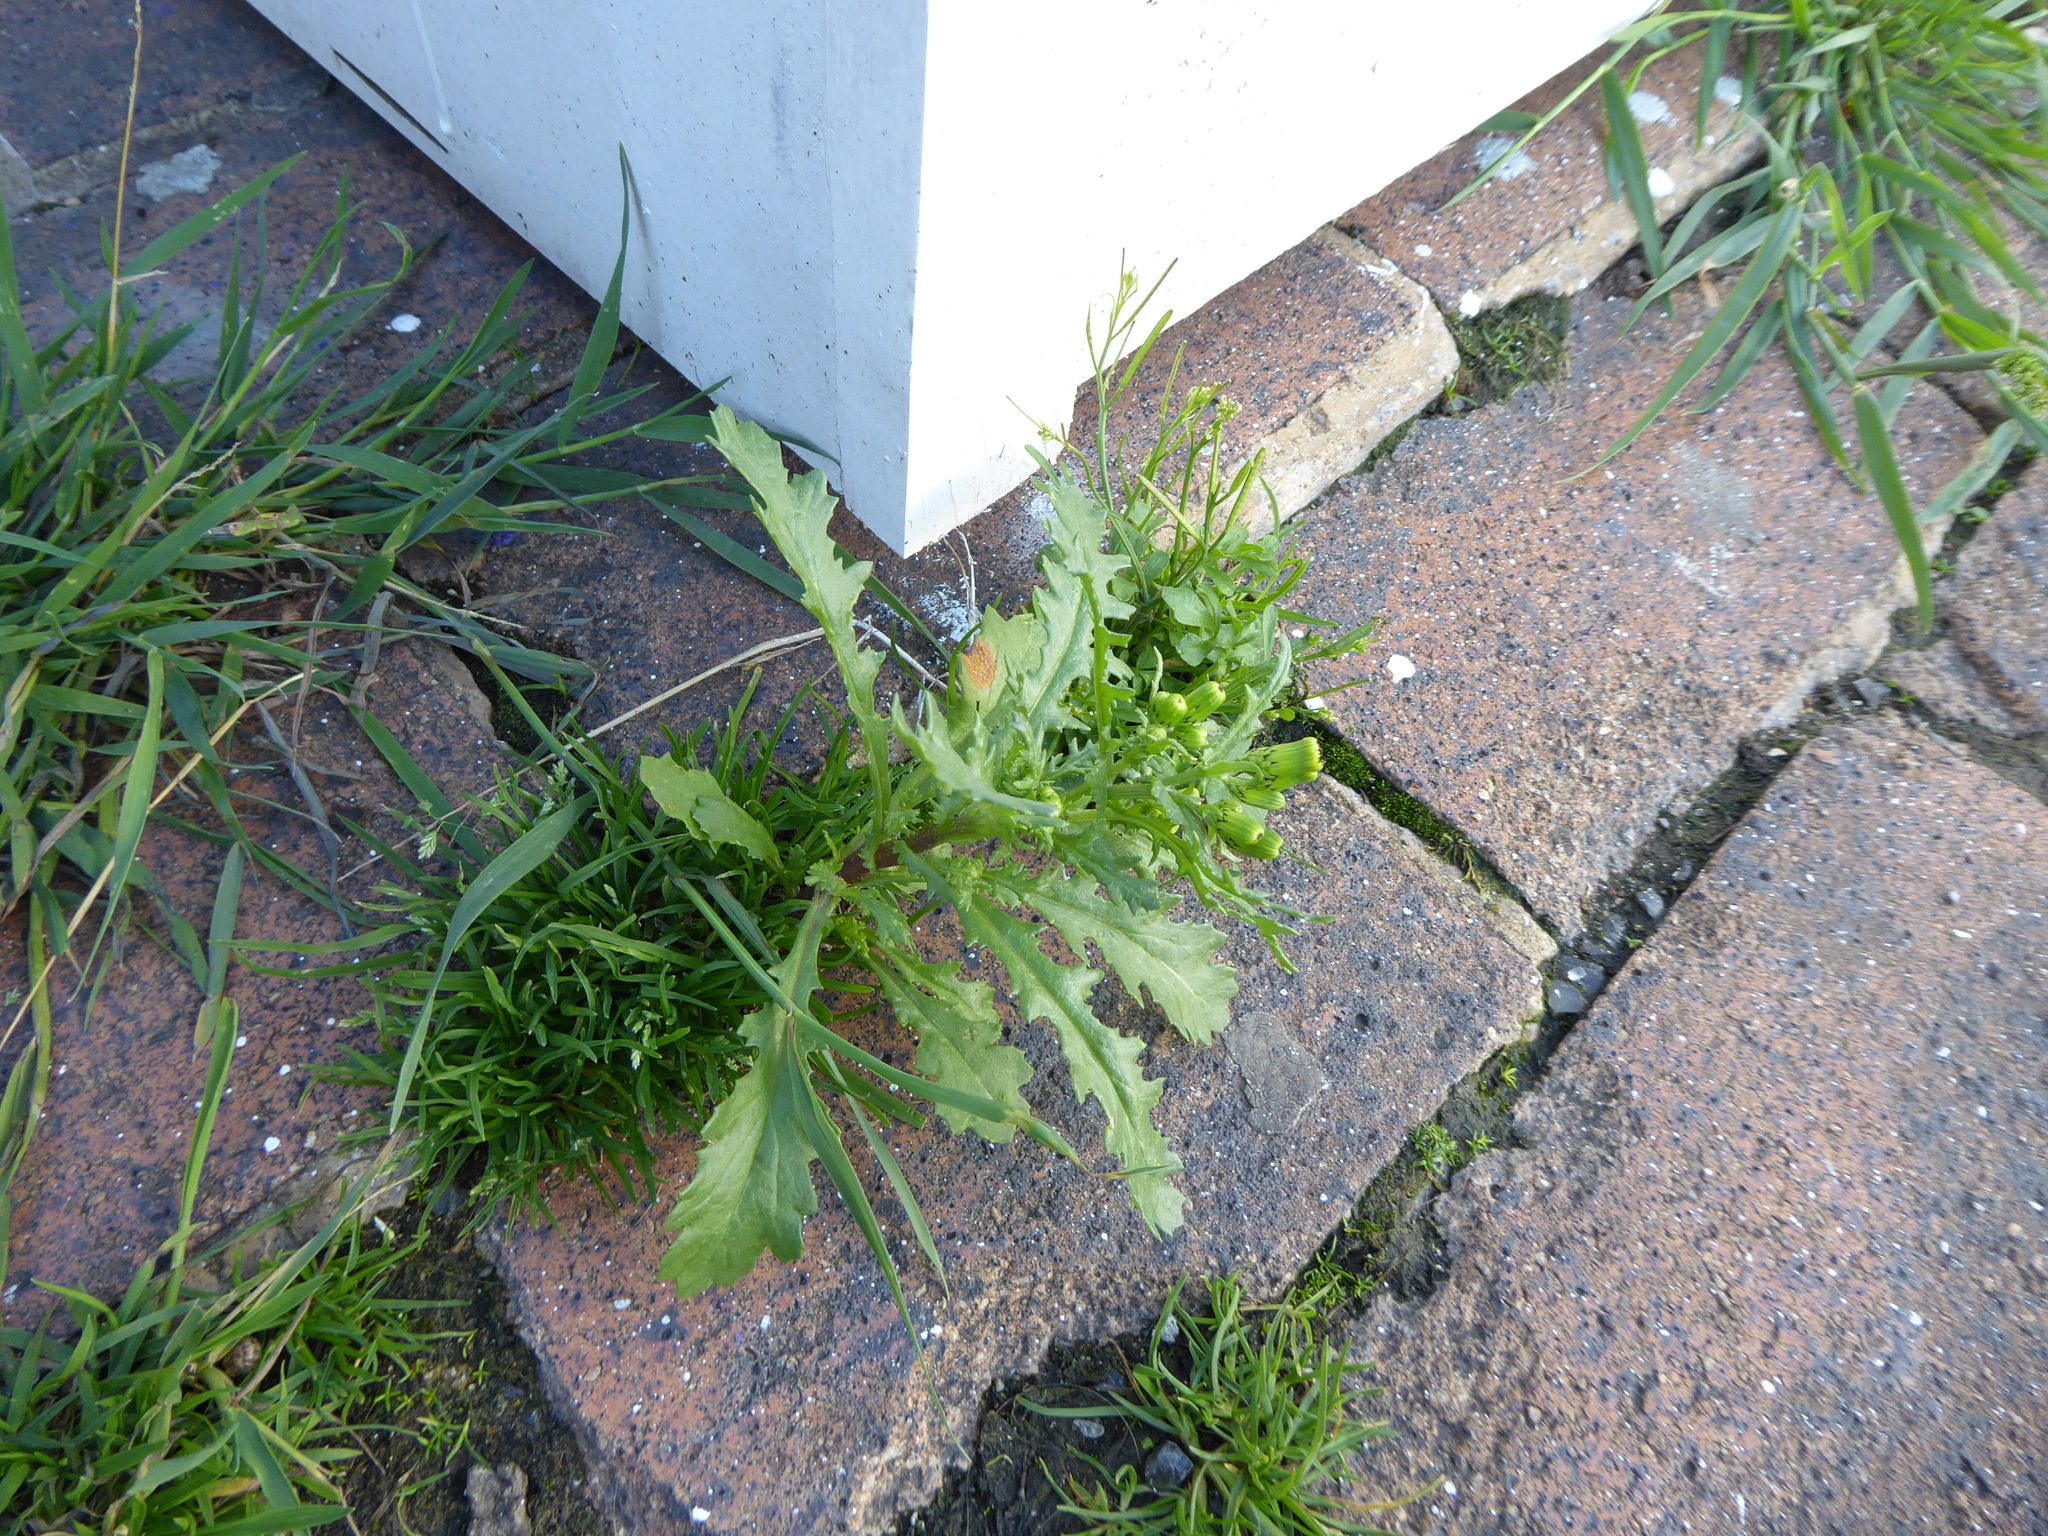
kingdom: Plantae
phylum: Tracheophyta
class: Magnoliopsida
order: Asterales
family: Asteraceae
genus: Senecio
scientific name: Senecio vulgaris
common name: Old-man-in-the-spring
